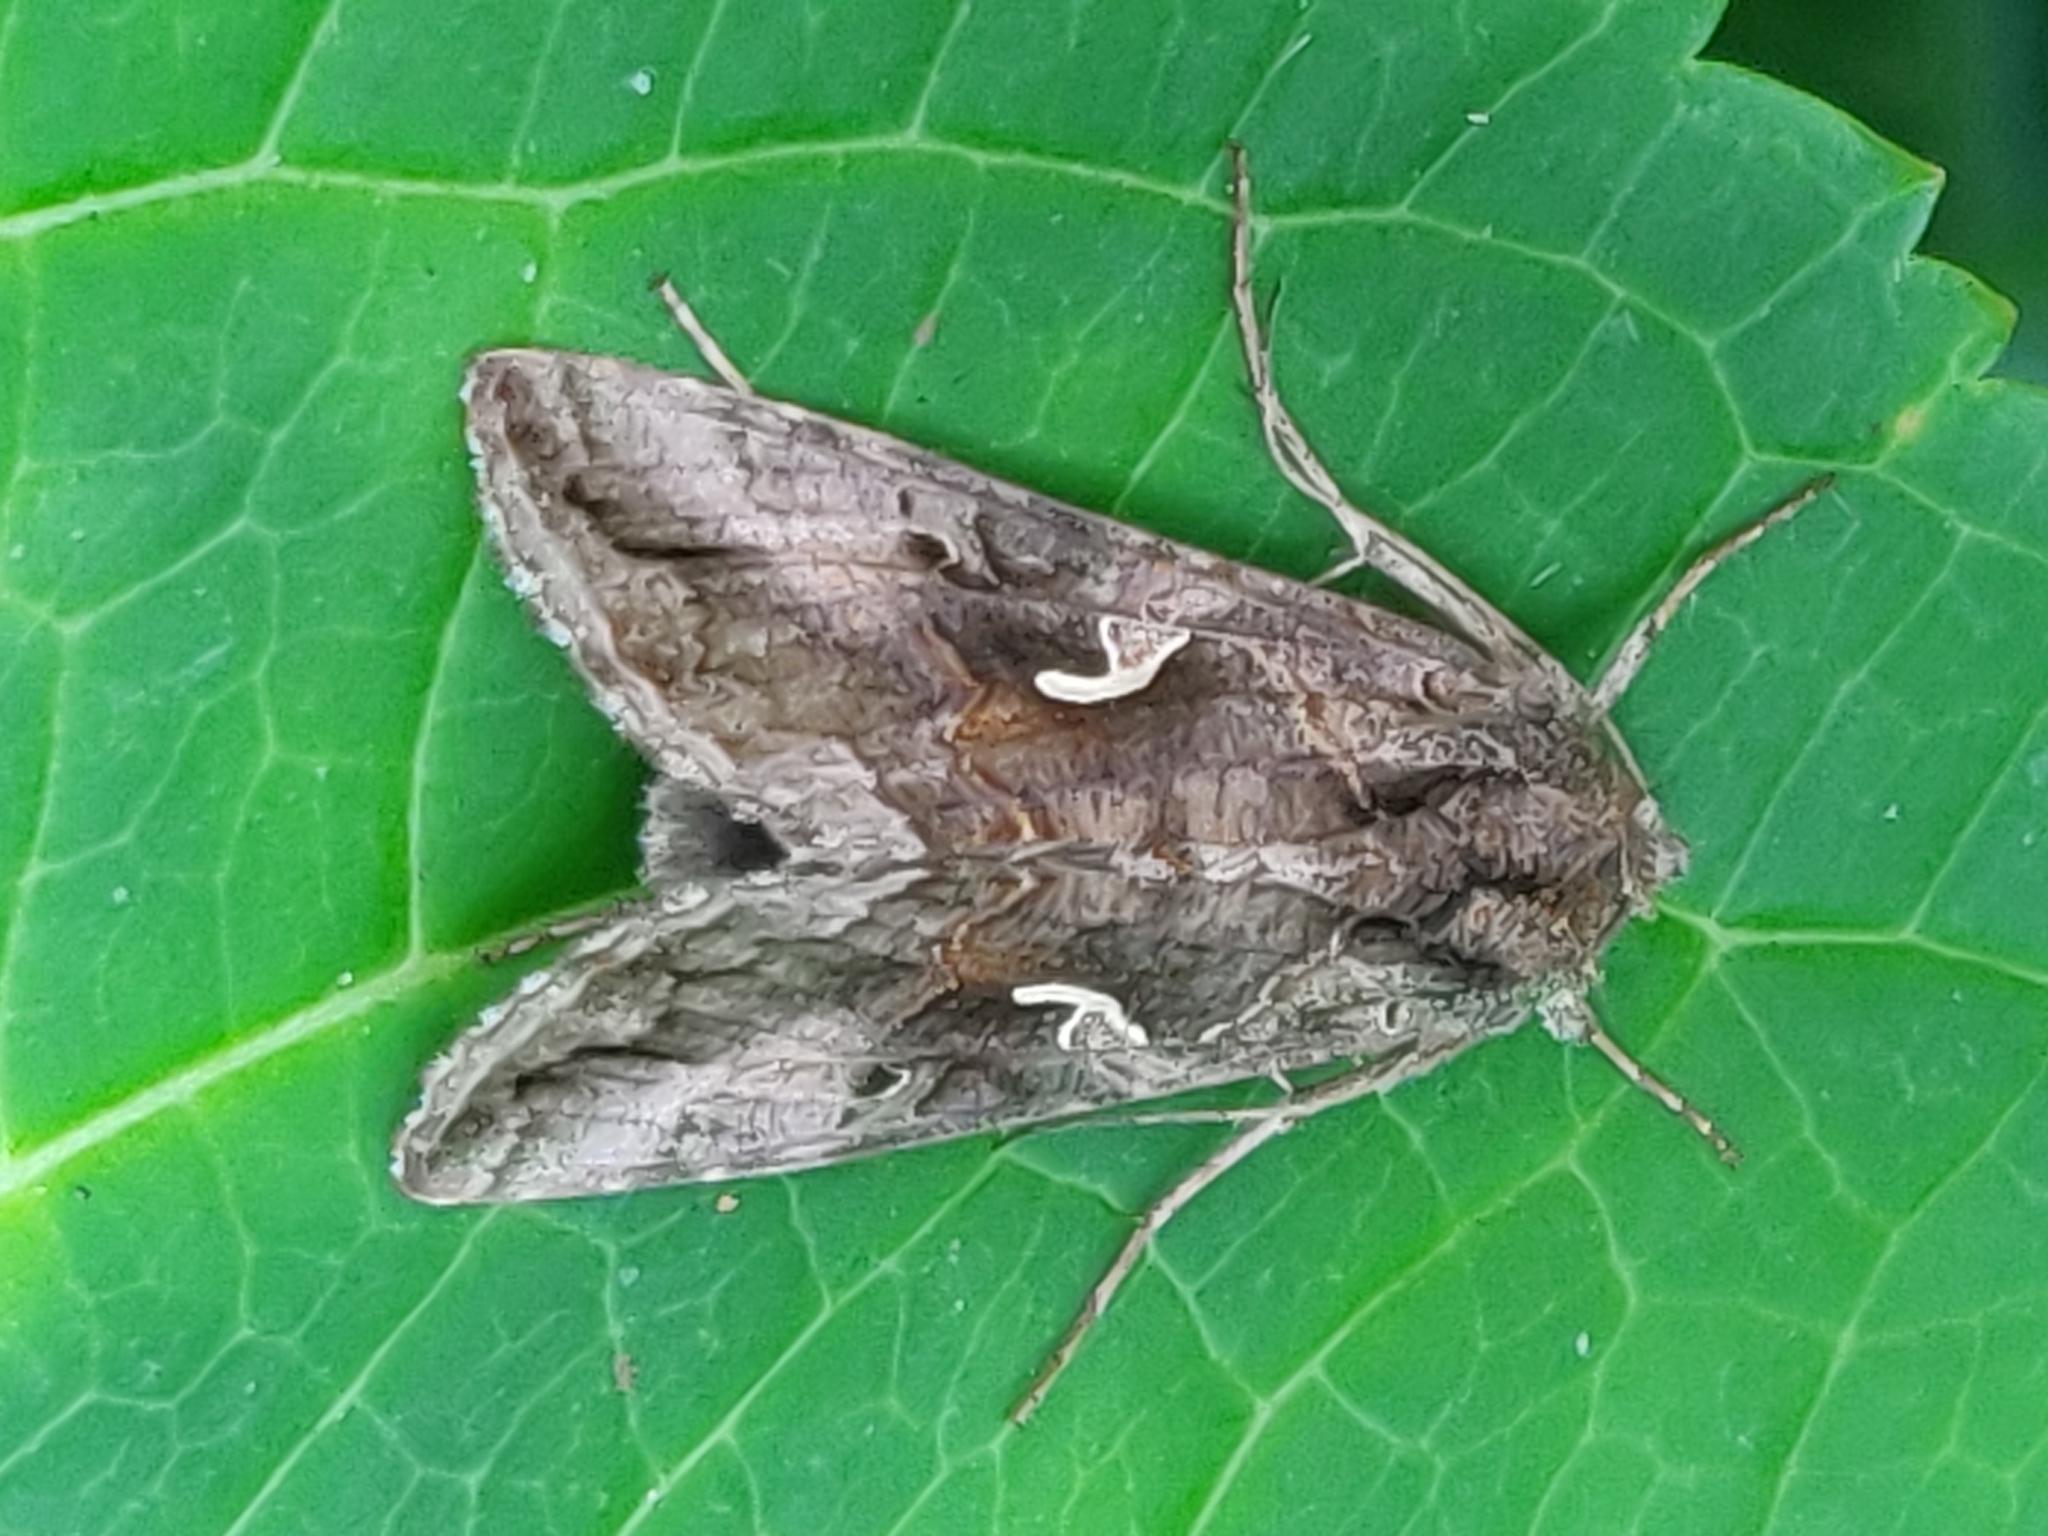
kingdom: Animalia
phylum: Arthropoda
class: Insecta
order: Lepidoptera
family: Noctuidae
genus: Autographa
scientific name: Autographa gamma
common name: Silver y
